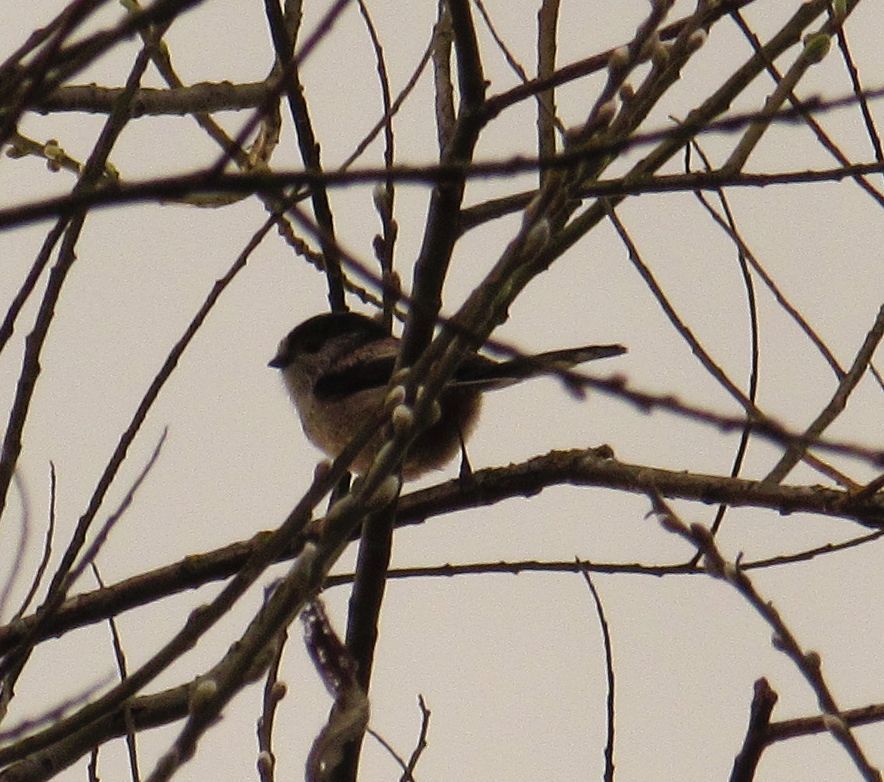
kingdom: Animalia
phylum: Chordata
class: Aves
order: Passeriformes
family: Aegithalidae
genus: Aegithalos
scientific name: Aegithalos caudatus
